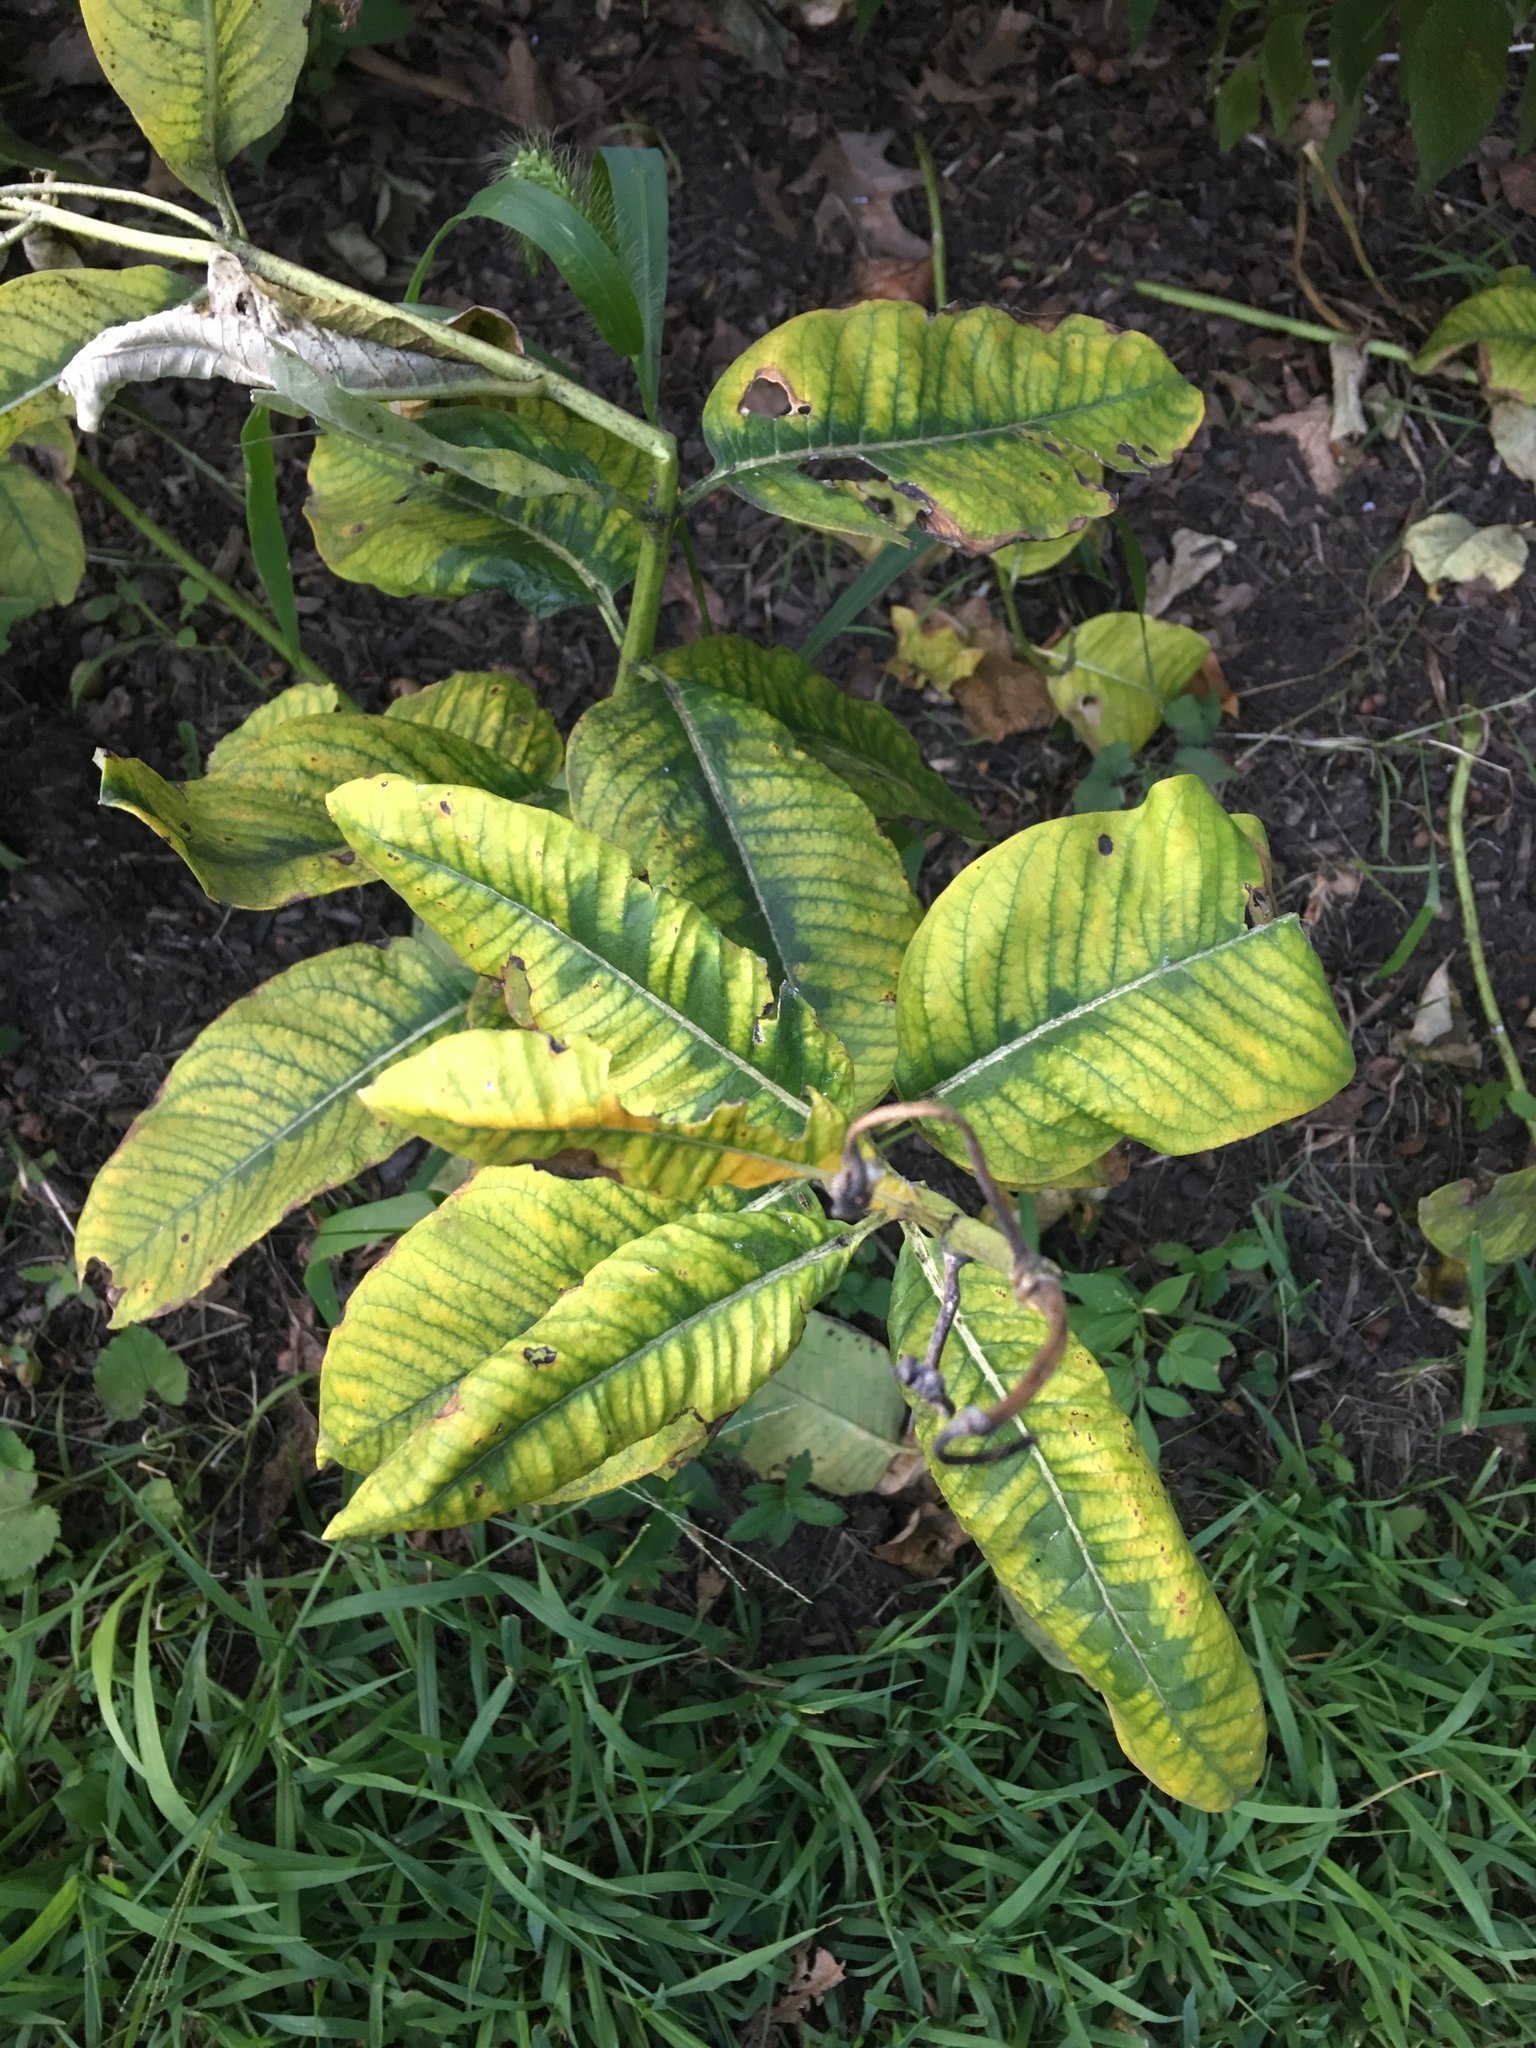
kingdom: Plantae
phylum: Tracheophyta
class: Magnoliopsida
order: Gentianales
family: Apocynaceae
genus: Asclepias
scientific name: Asclepias syriaca
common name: Common milkweed
